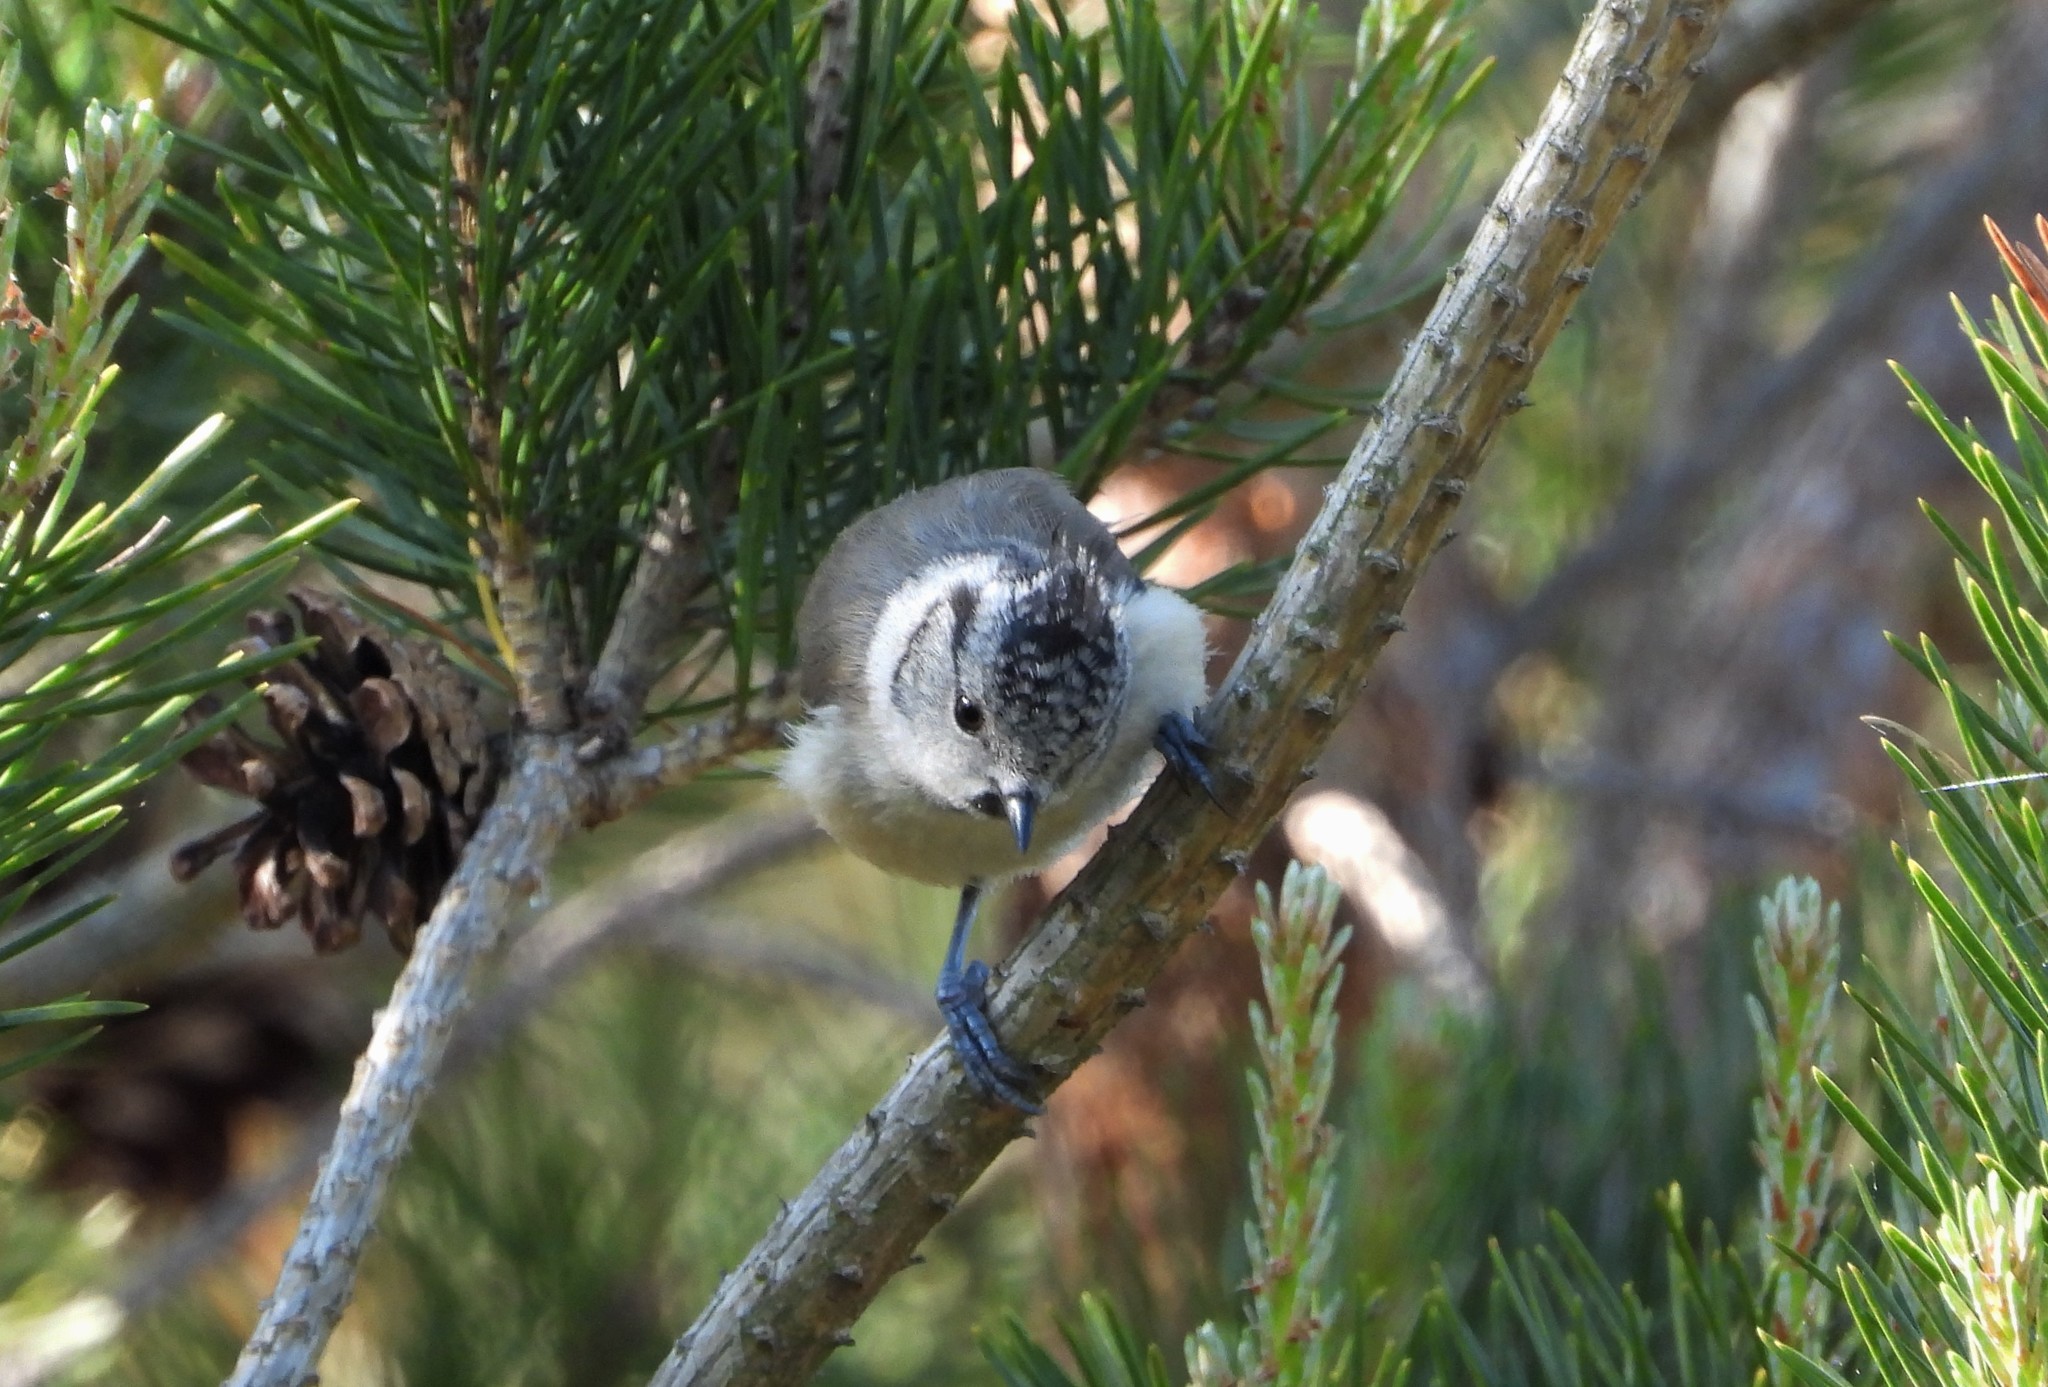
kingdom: Animalia
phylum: Chordata
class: Aves
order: Passeriformes
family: Paridae
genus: Lophophanes
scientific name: Lophophanes cristatus
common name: European crested tit
